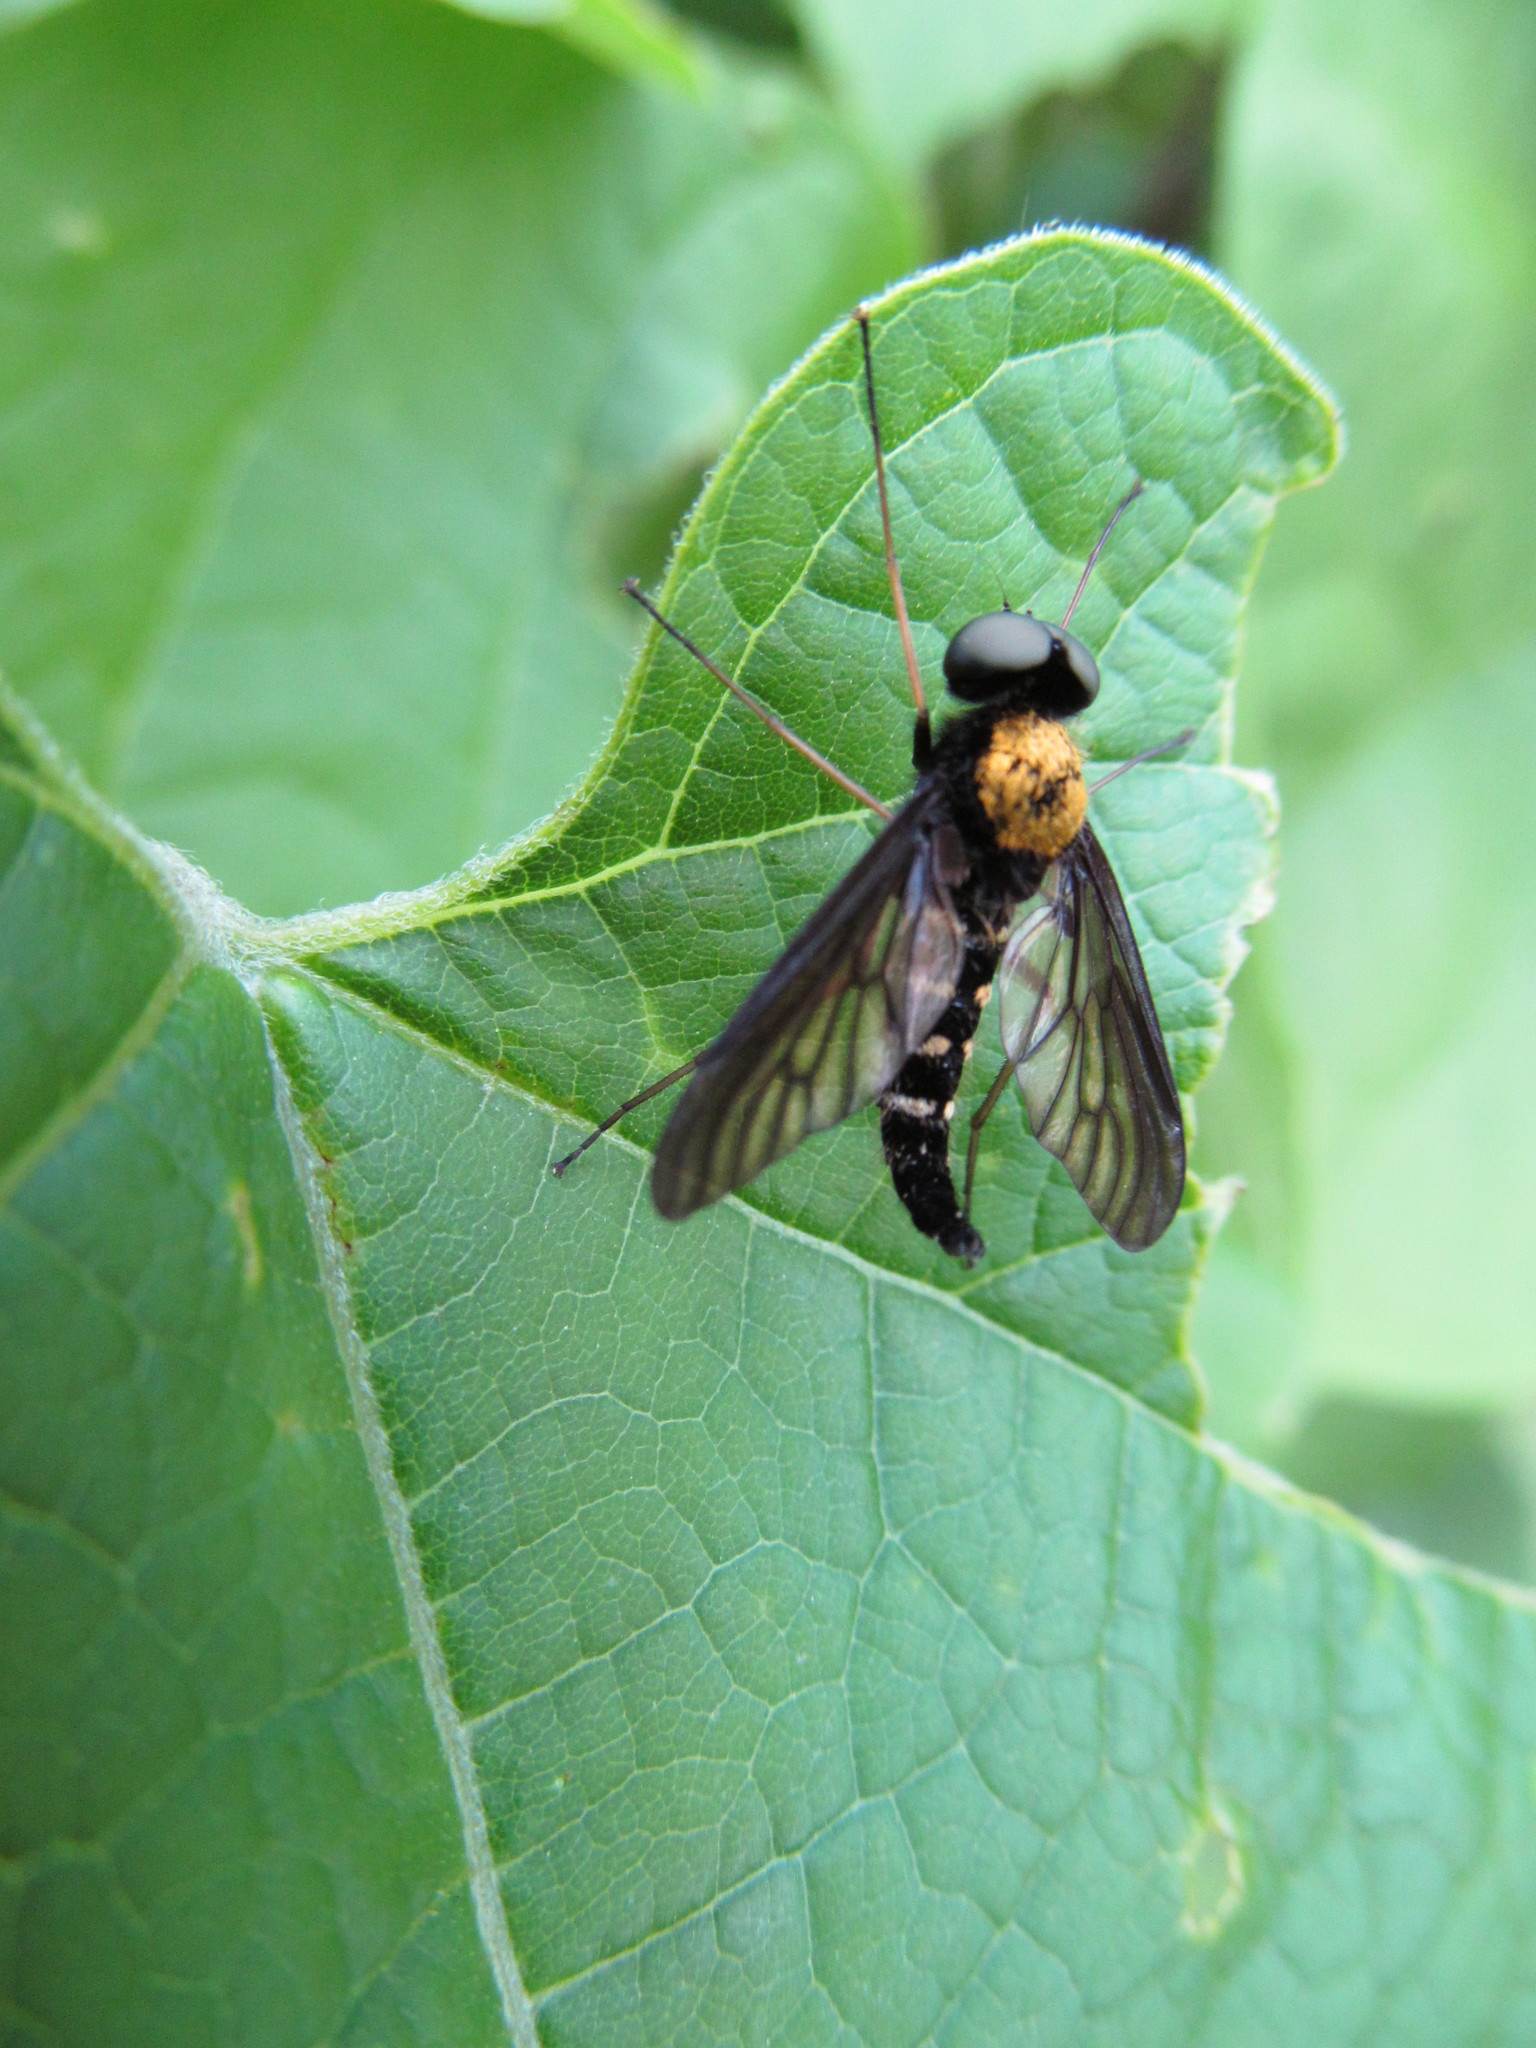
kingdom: Animalia
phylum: Arthropoda
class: Insecta
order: Diptera
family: Rhagionidae
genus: Chrysopilus
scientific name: Chrysopilus thoracicus
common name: Golden-backed snipe fly
